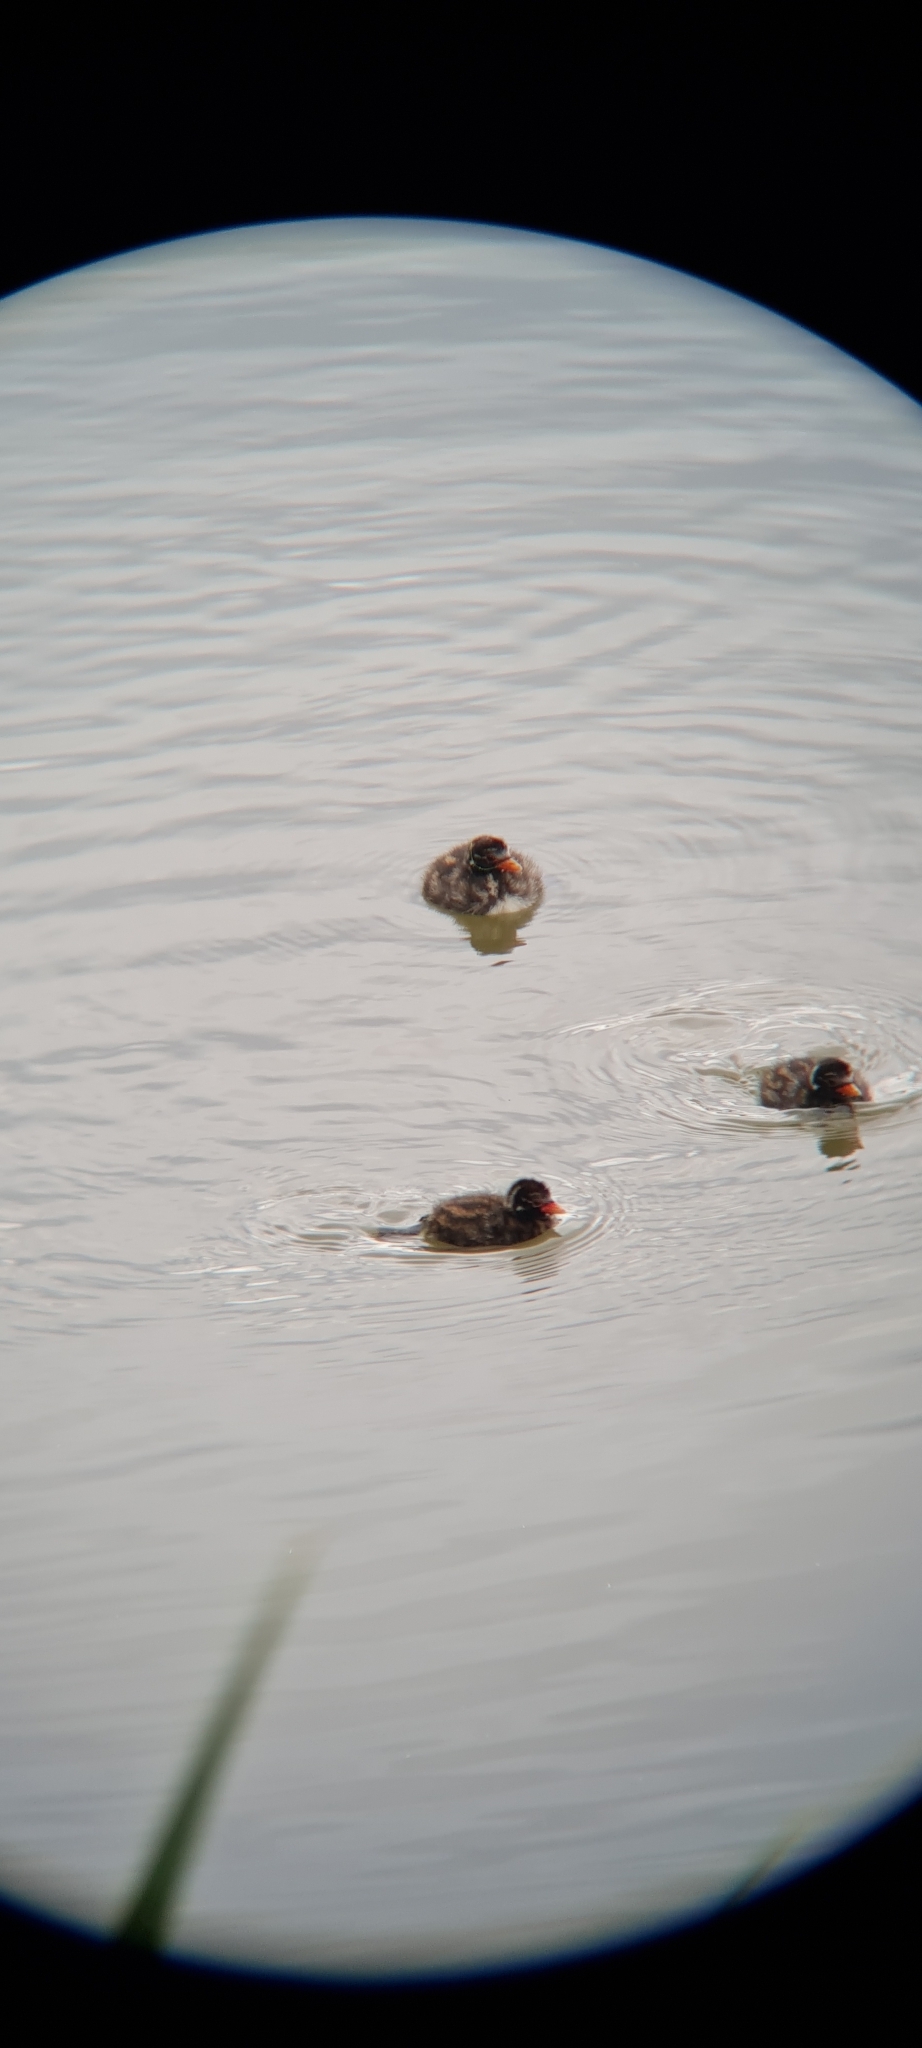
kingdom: Animalia
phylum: Chordata
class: Aves
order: Podicipediformes
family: Podicipedidae
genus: Tachybaptus
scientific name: Tachybaptus ruficollis
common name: Little grebe
